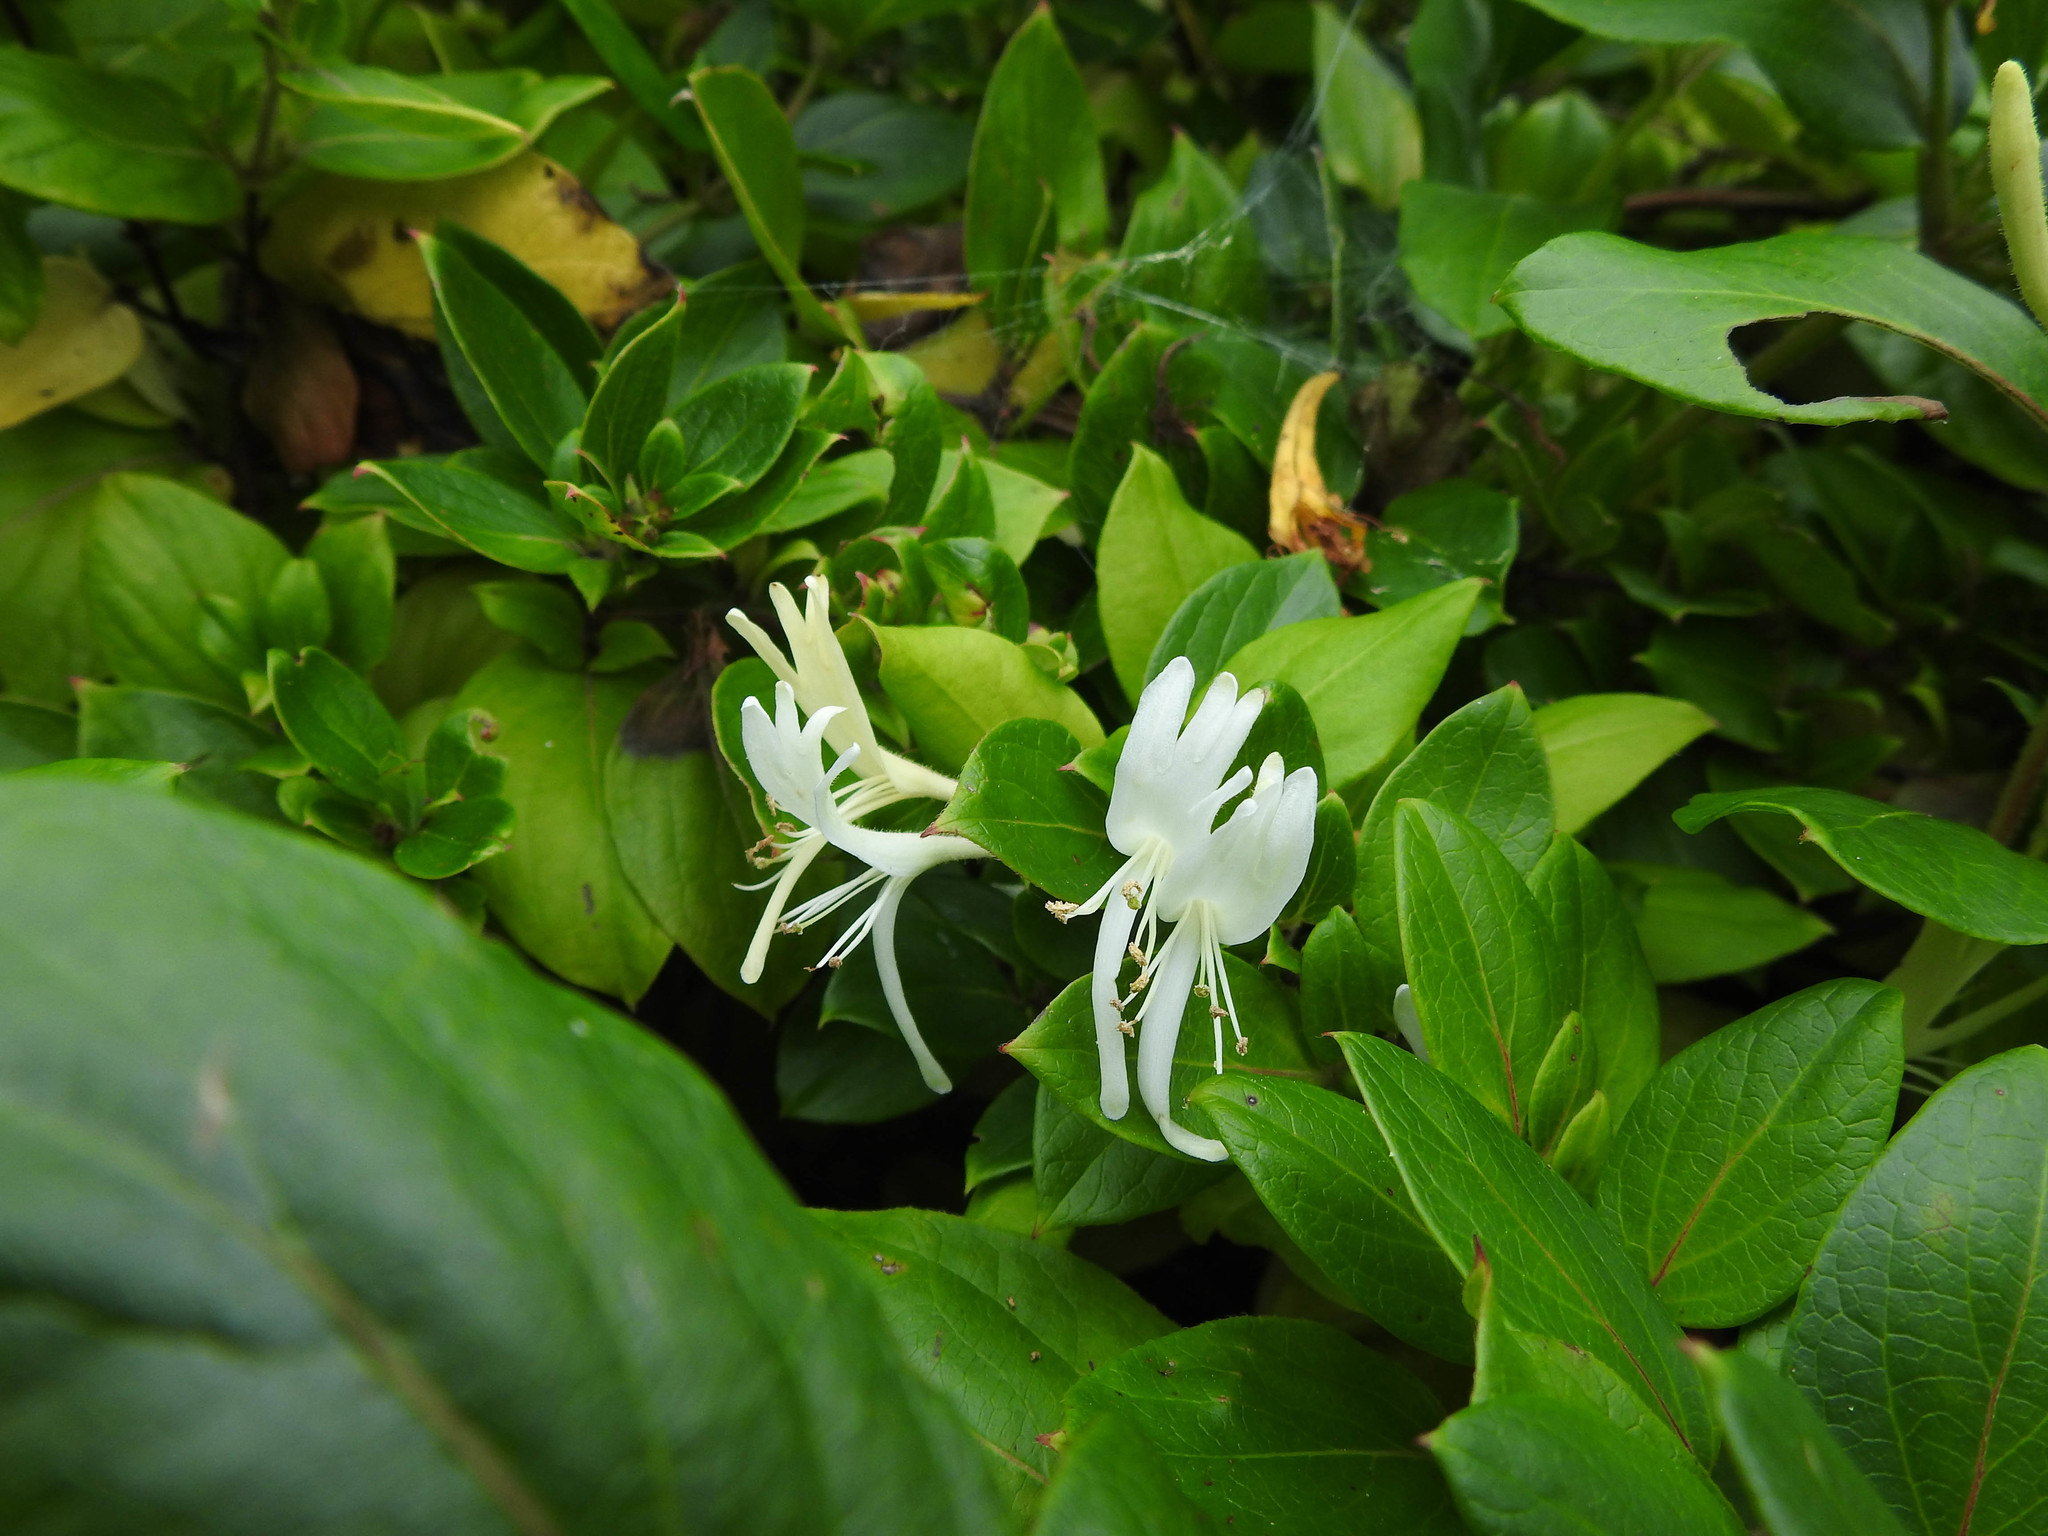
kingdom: Plantae
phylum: Tracheophyta
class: Magnoliopsida
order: Dipsacales
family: Caprifoliaceae
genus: Lonicera
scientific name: Lonicera japonica
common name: Japanese honeysuckle
